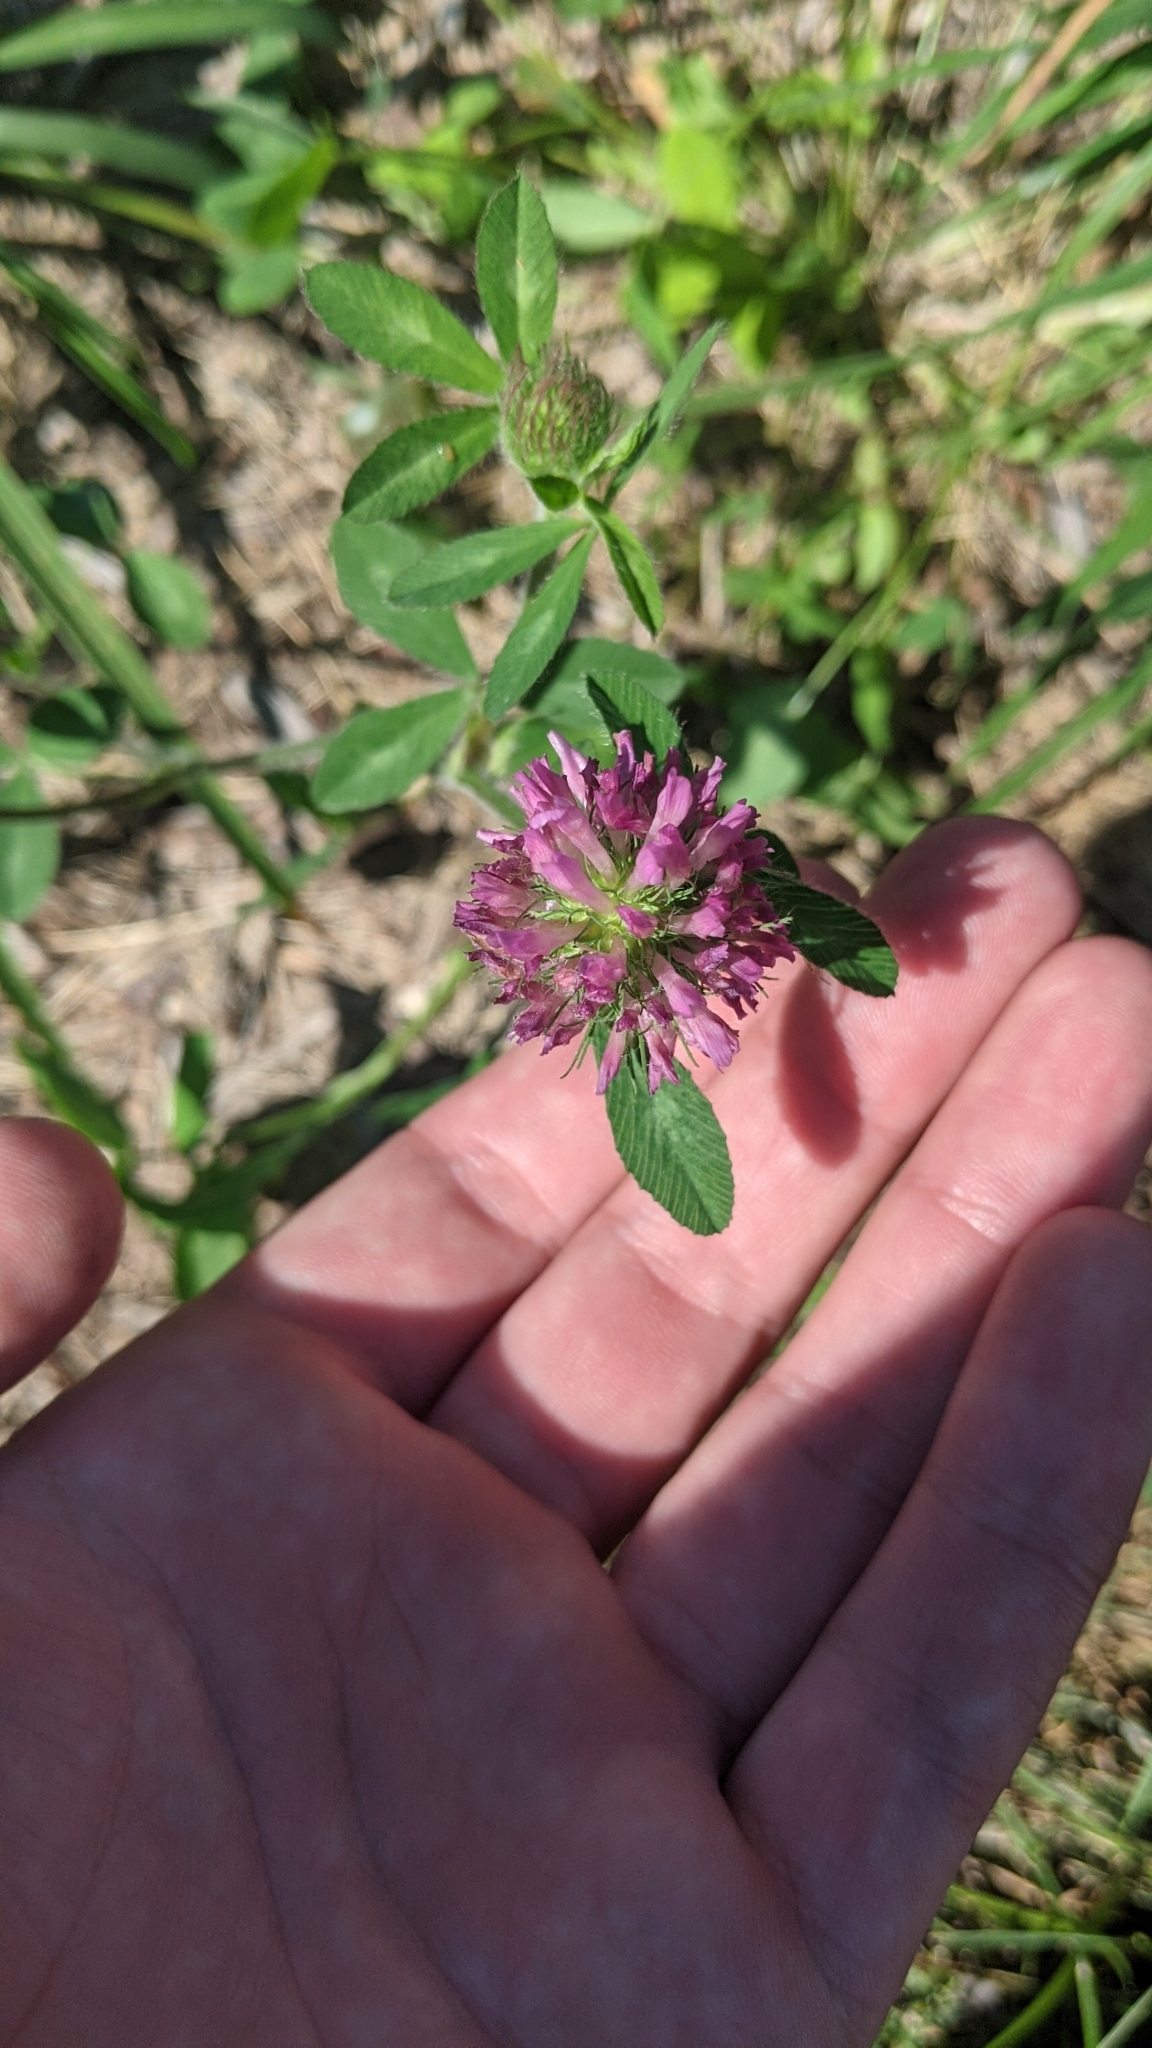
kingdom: Plantae
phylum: Tracheophyta
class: Magnoliopsida
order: Fabales
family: Fabaceae
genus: Trifolium
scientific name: Trifolium pratense
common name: Red clover
